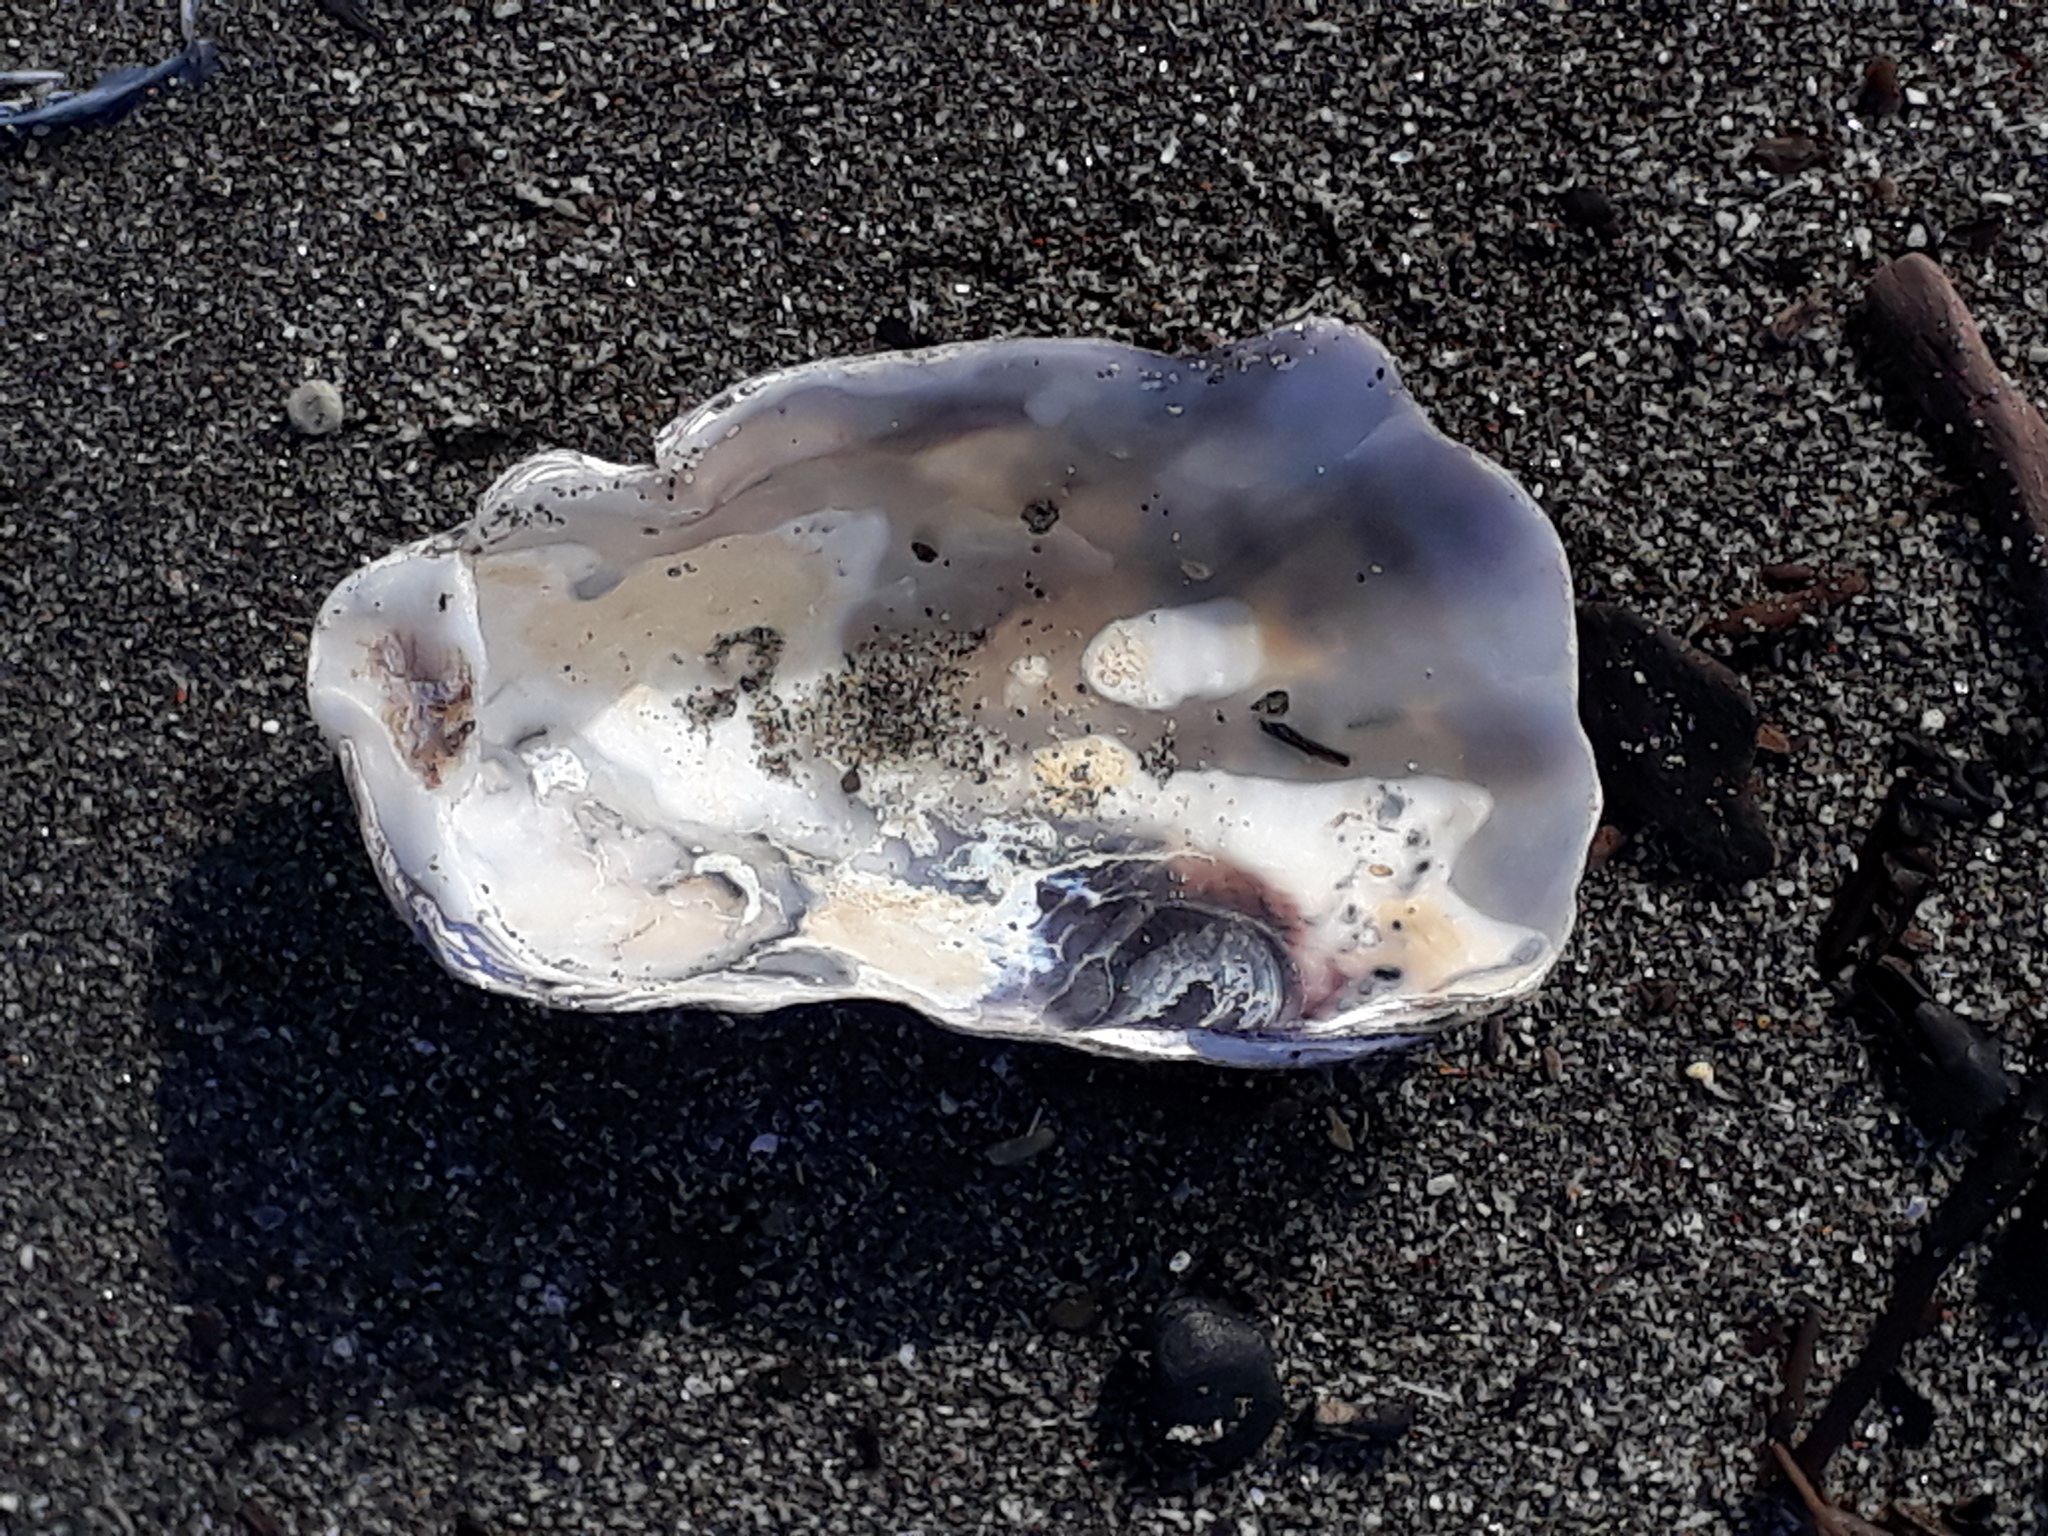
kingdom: Animalia
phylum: Mollusca
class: Bivalvia
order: Ostreida
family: Ostreidae
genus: Magallana
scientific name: Magallana gigas
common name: Pacific oyster
